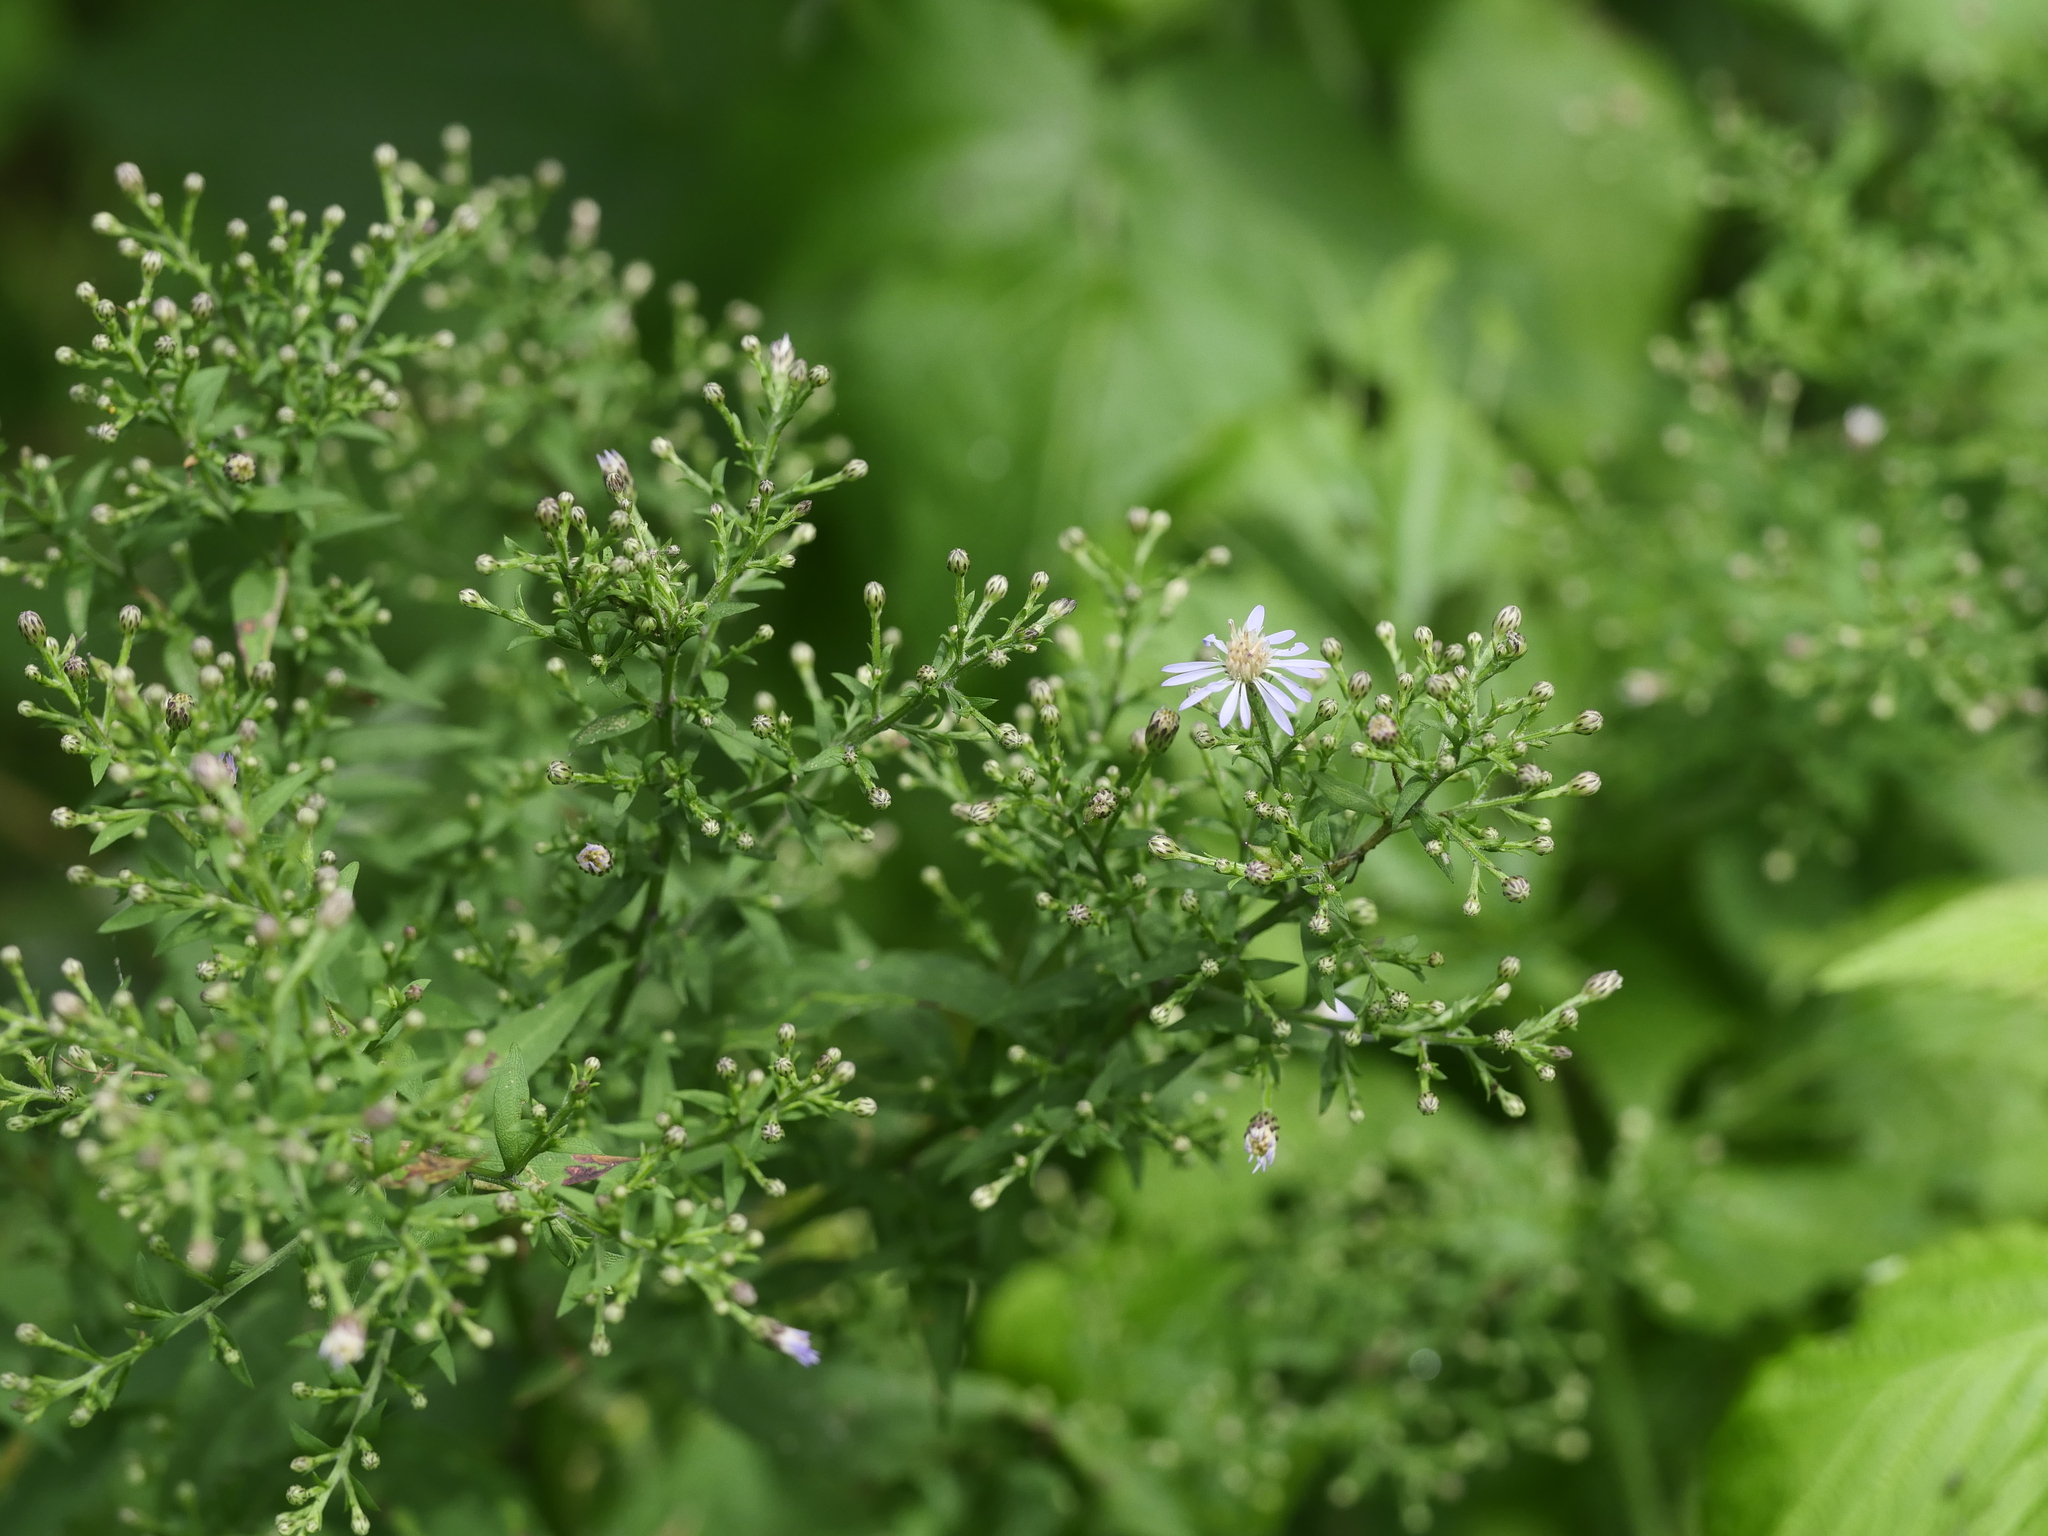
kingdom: Plantae
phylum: Tracheophyta
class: Magnoliopsida
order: Asterales
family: Asteraceae
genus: Symphyotrichum
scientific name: Symphyotrichum cordifolium
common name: Beeweed
